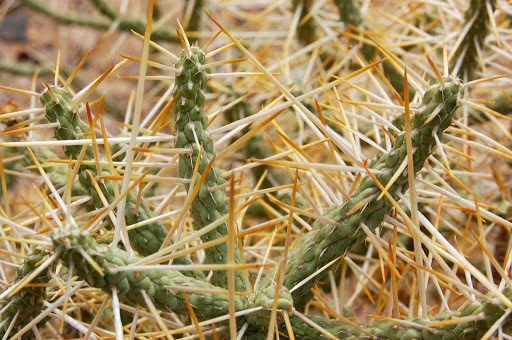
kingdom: Plantae
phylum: Tracheophyta
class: Magnoliopsida
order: Caryophyllales
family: Cactaceae
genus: Cylindropuntia
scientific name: Cylindropuntia ramosissima
